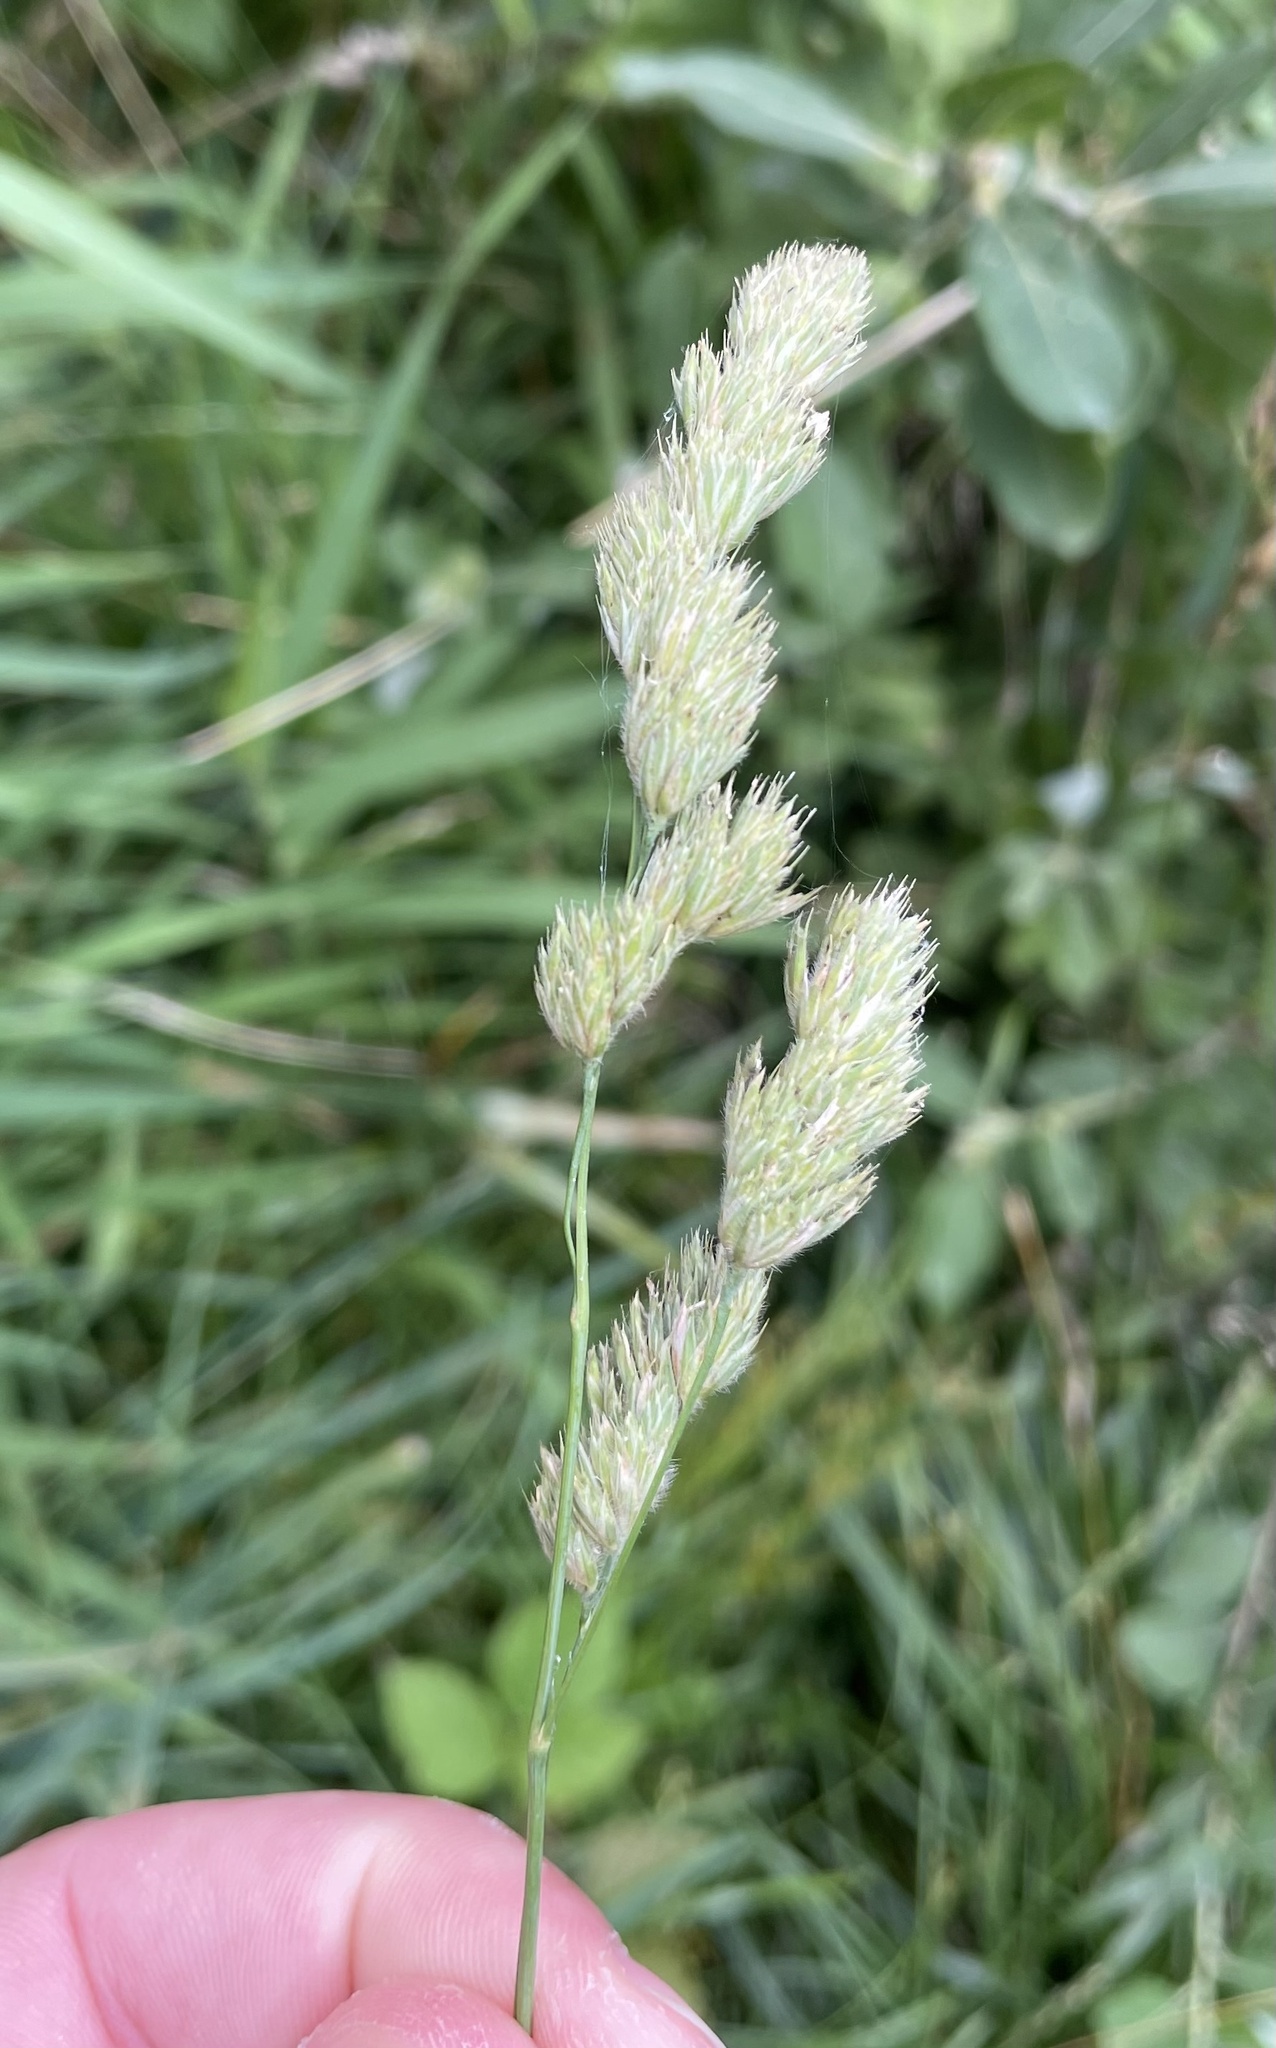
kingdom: Plantae
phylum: Tracheophyta
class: Liliopsida
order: Poales
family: Poaceae
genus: Dactylis
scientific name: Dactylis glomerata
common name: Orchardgrass
